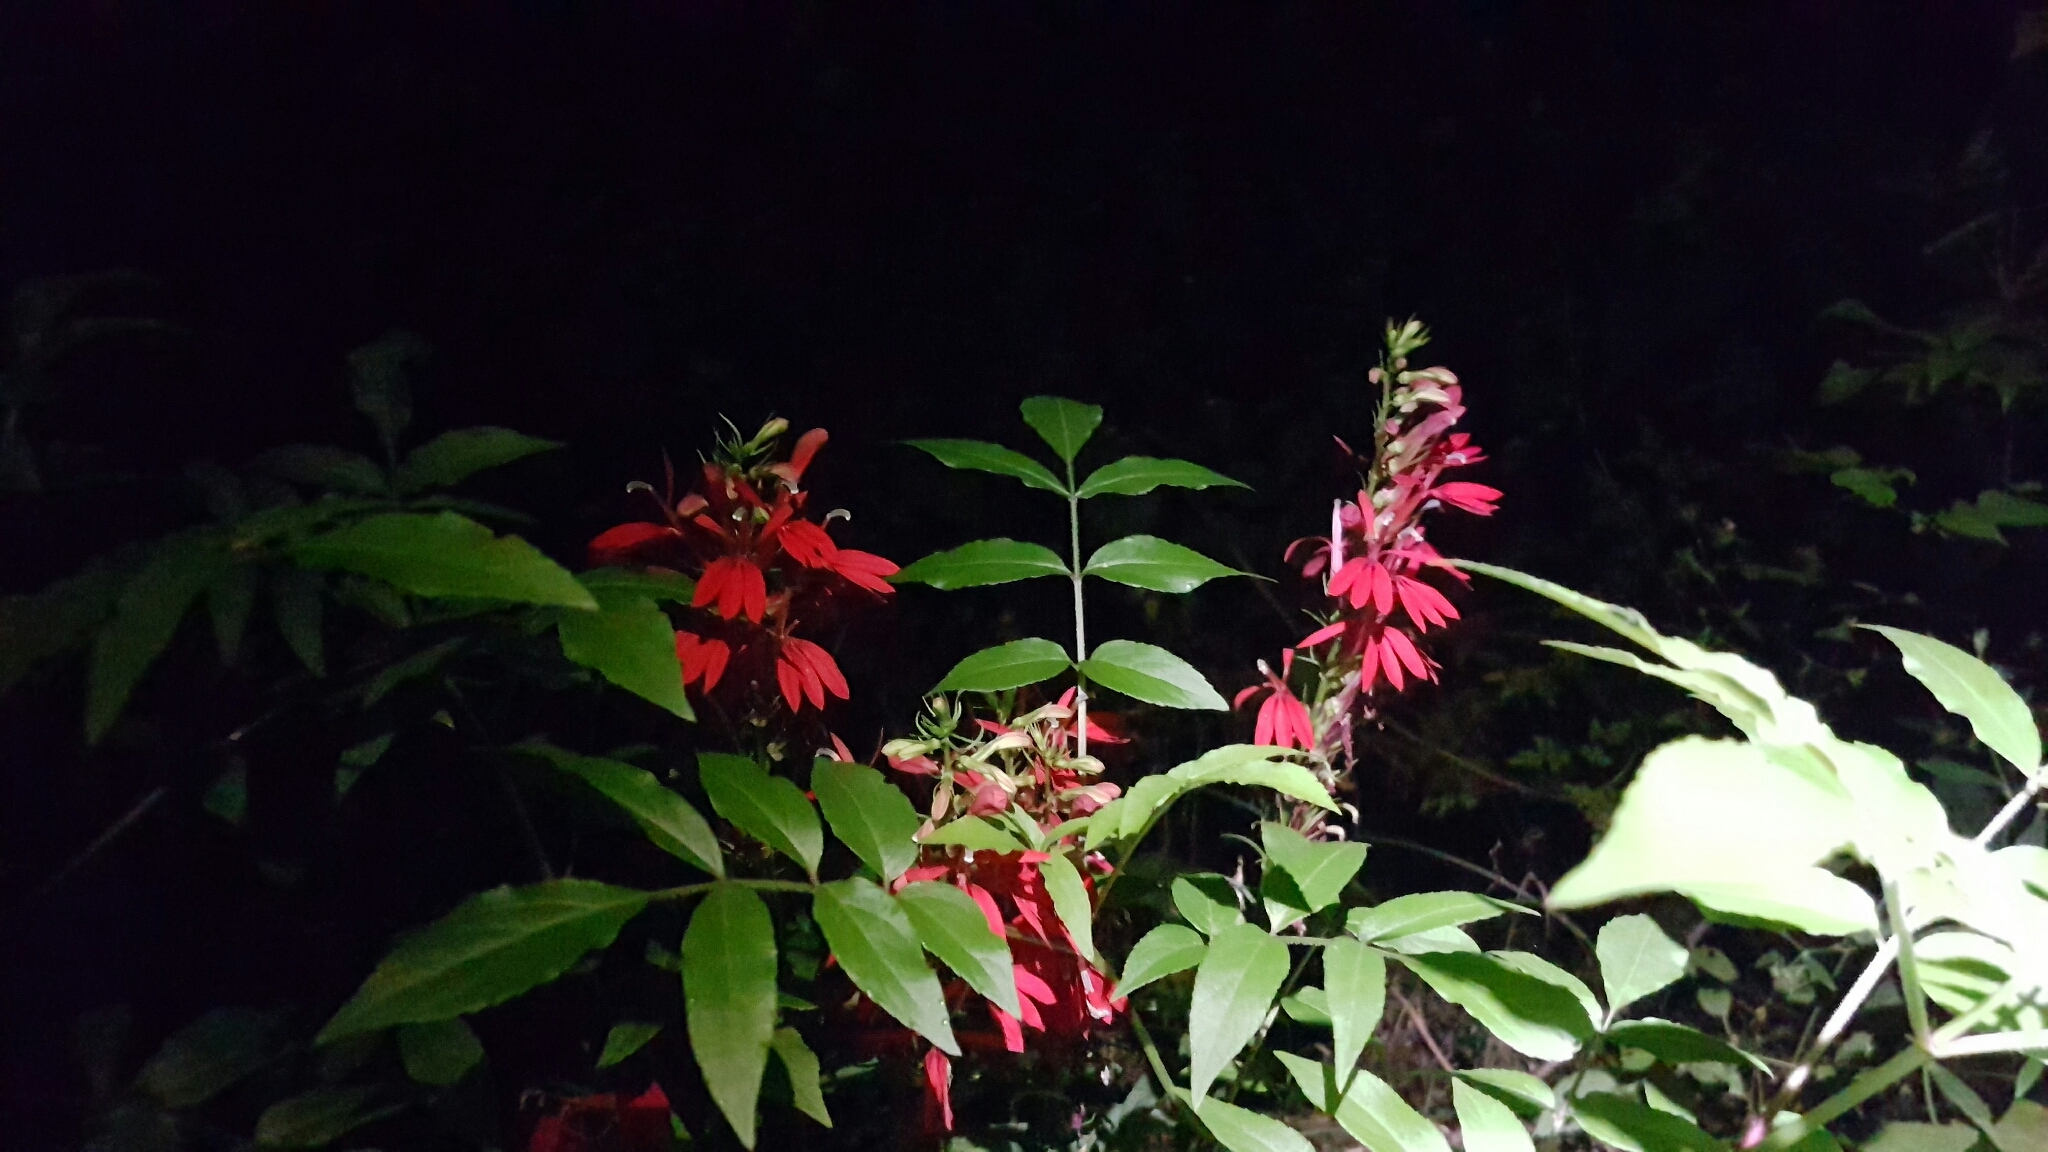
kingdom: Plantae
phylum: Tracheophyta
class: Magnoliopsida
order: Asterales
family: Campanulaceae
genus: Lobelia
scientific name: Lobelia cardinalis
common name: Cardinal flower
